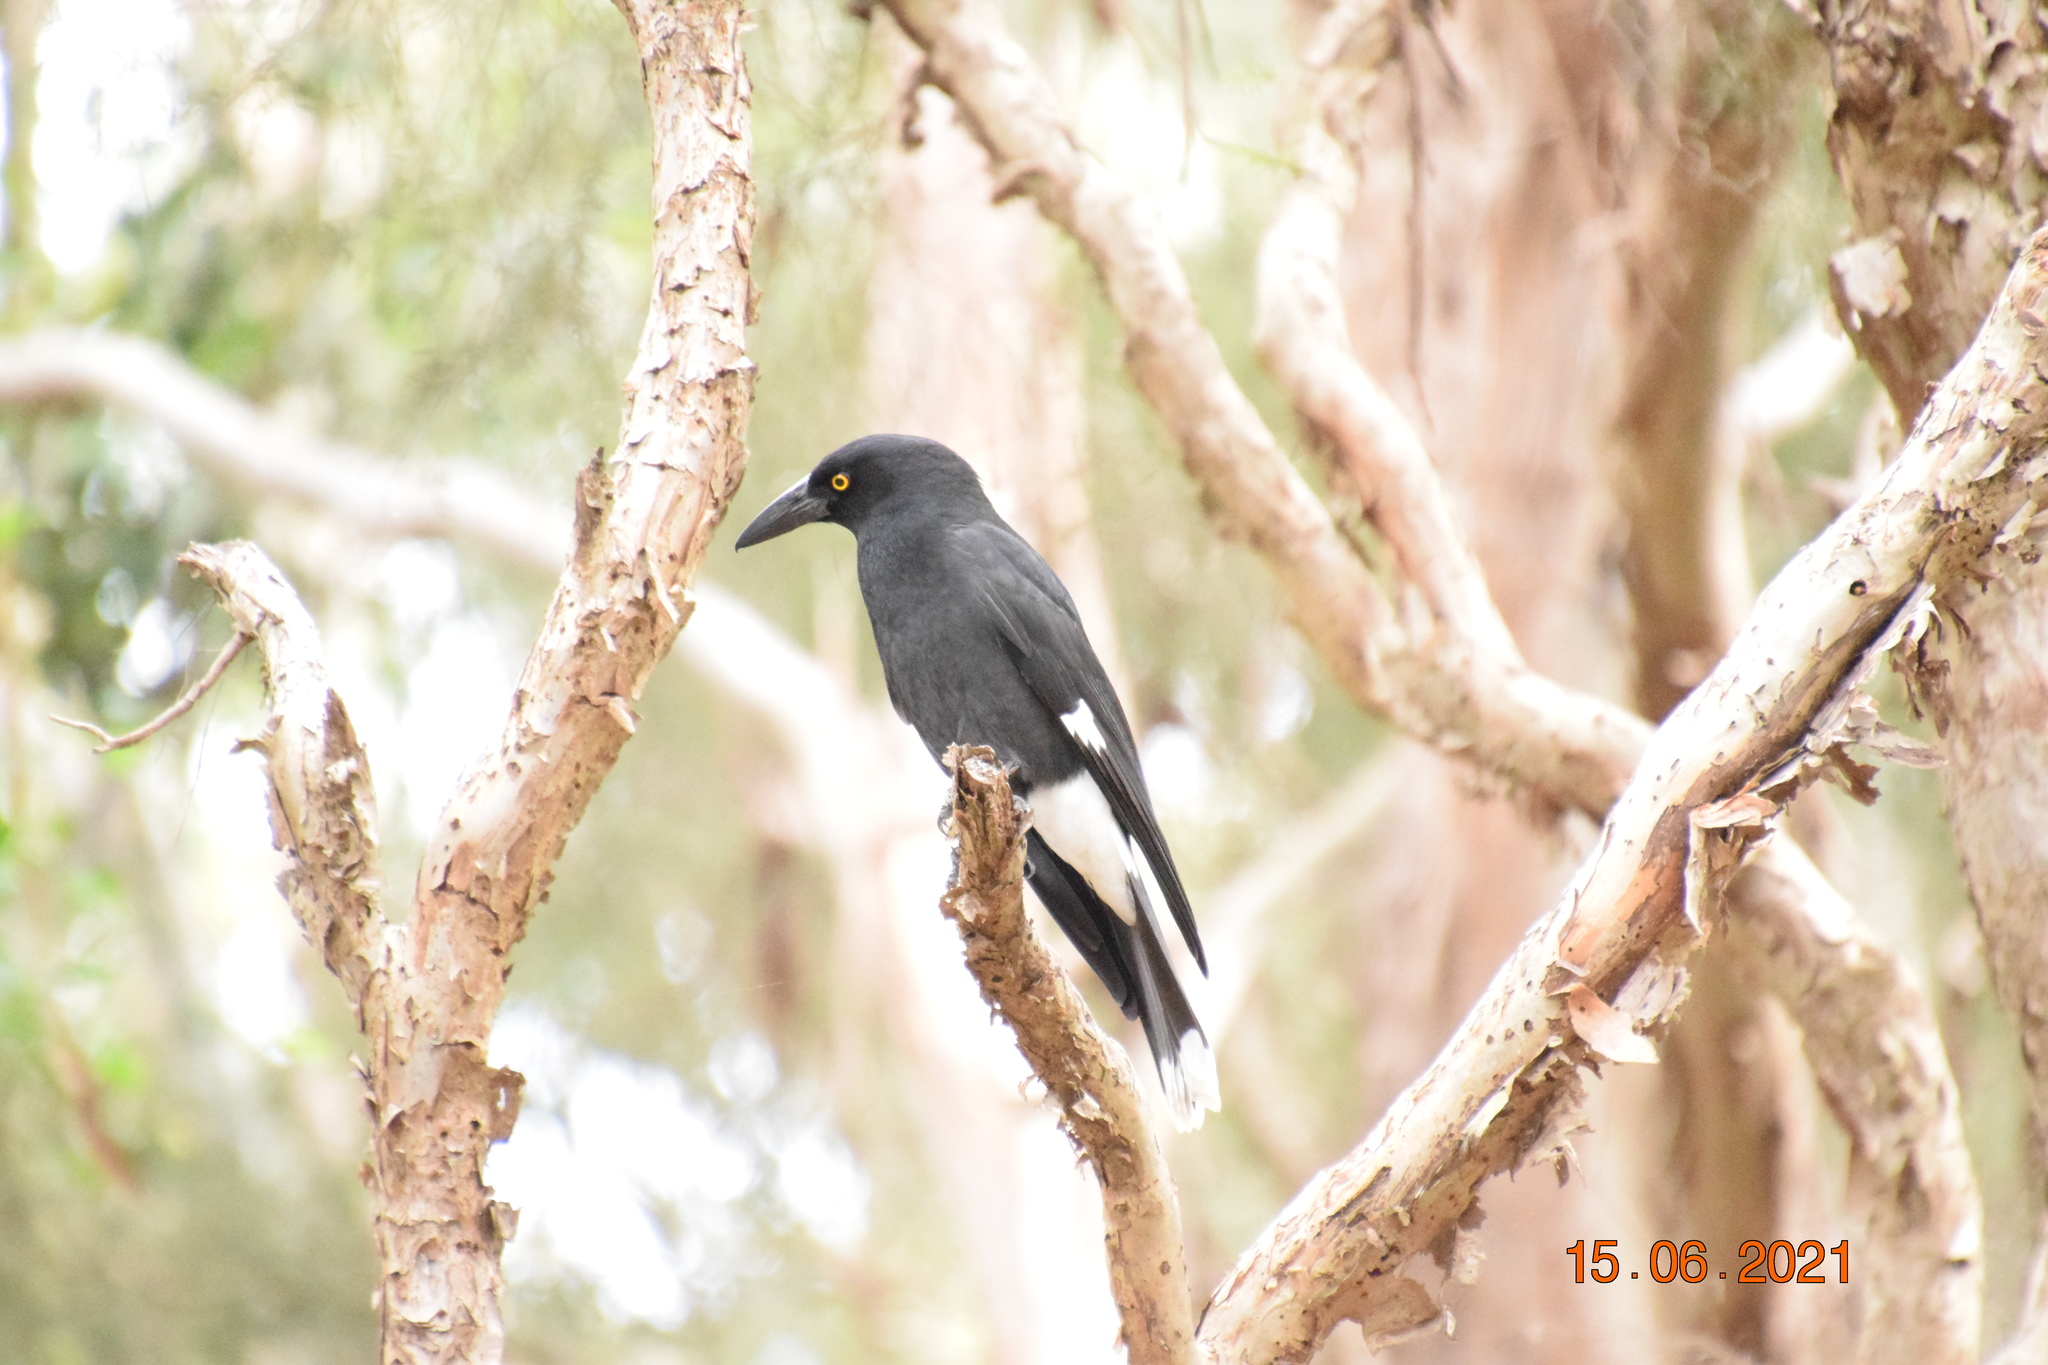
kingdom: Animalia
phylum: Chordata
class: Aves
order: Passeriformes
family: Cracticidae
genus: Strepera
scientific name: Strepera graculina
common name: Pied currawong
